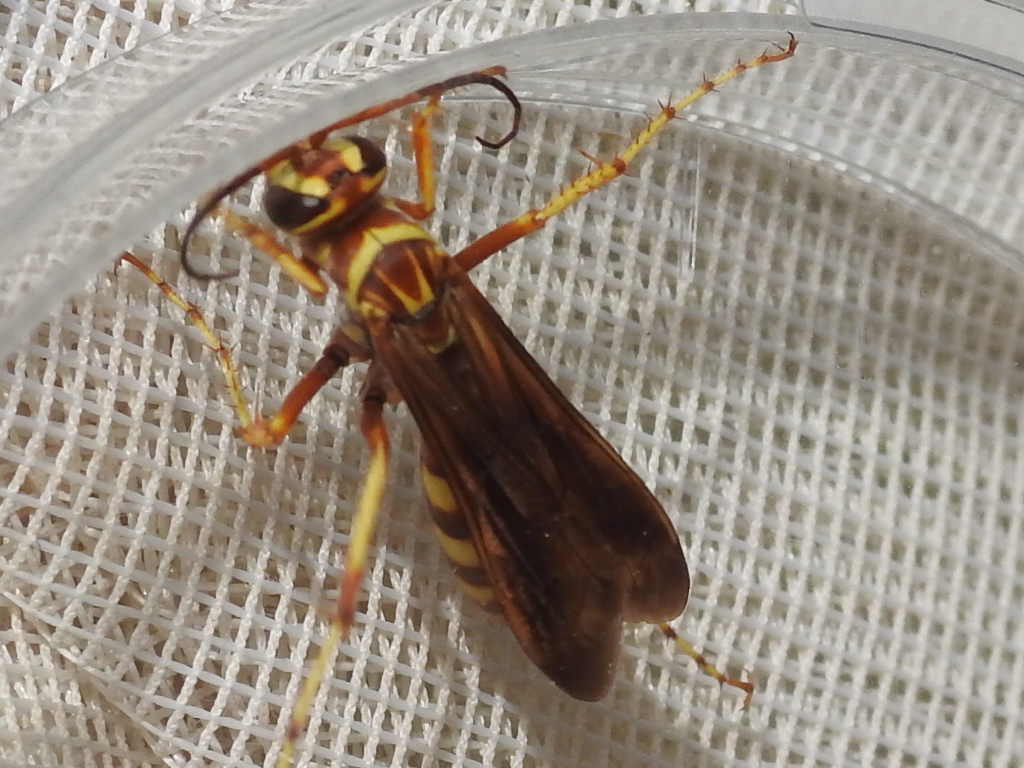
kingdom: Animalia
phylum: Arthropoda
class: Insecta
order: Hymenoptera
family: Pompilidae
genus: Poecilopompilus
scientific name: Poecilopompilus interruptus
